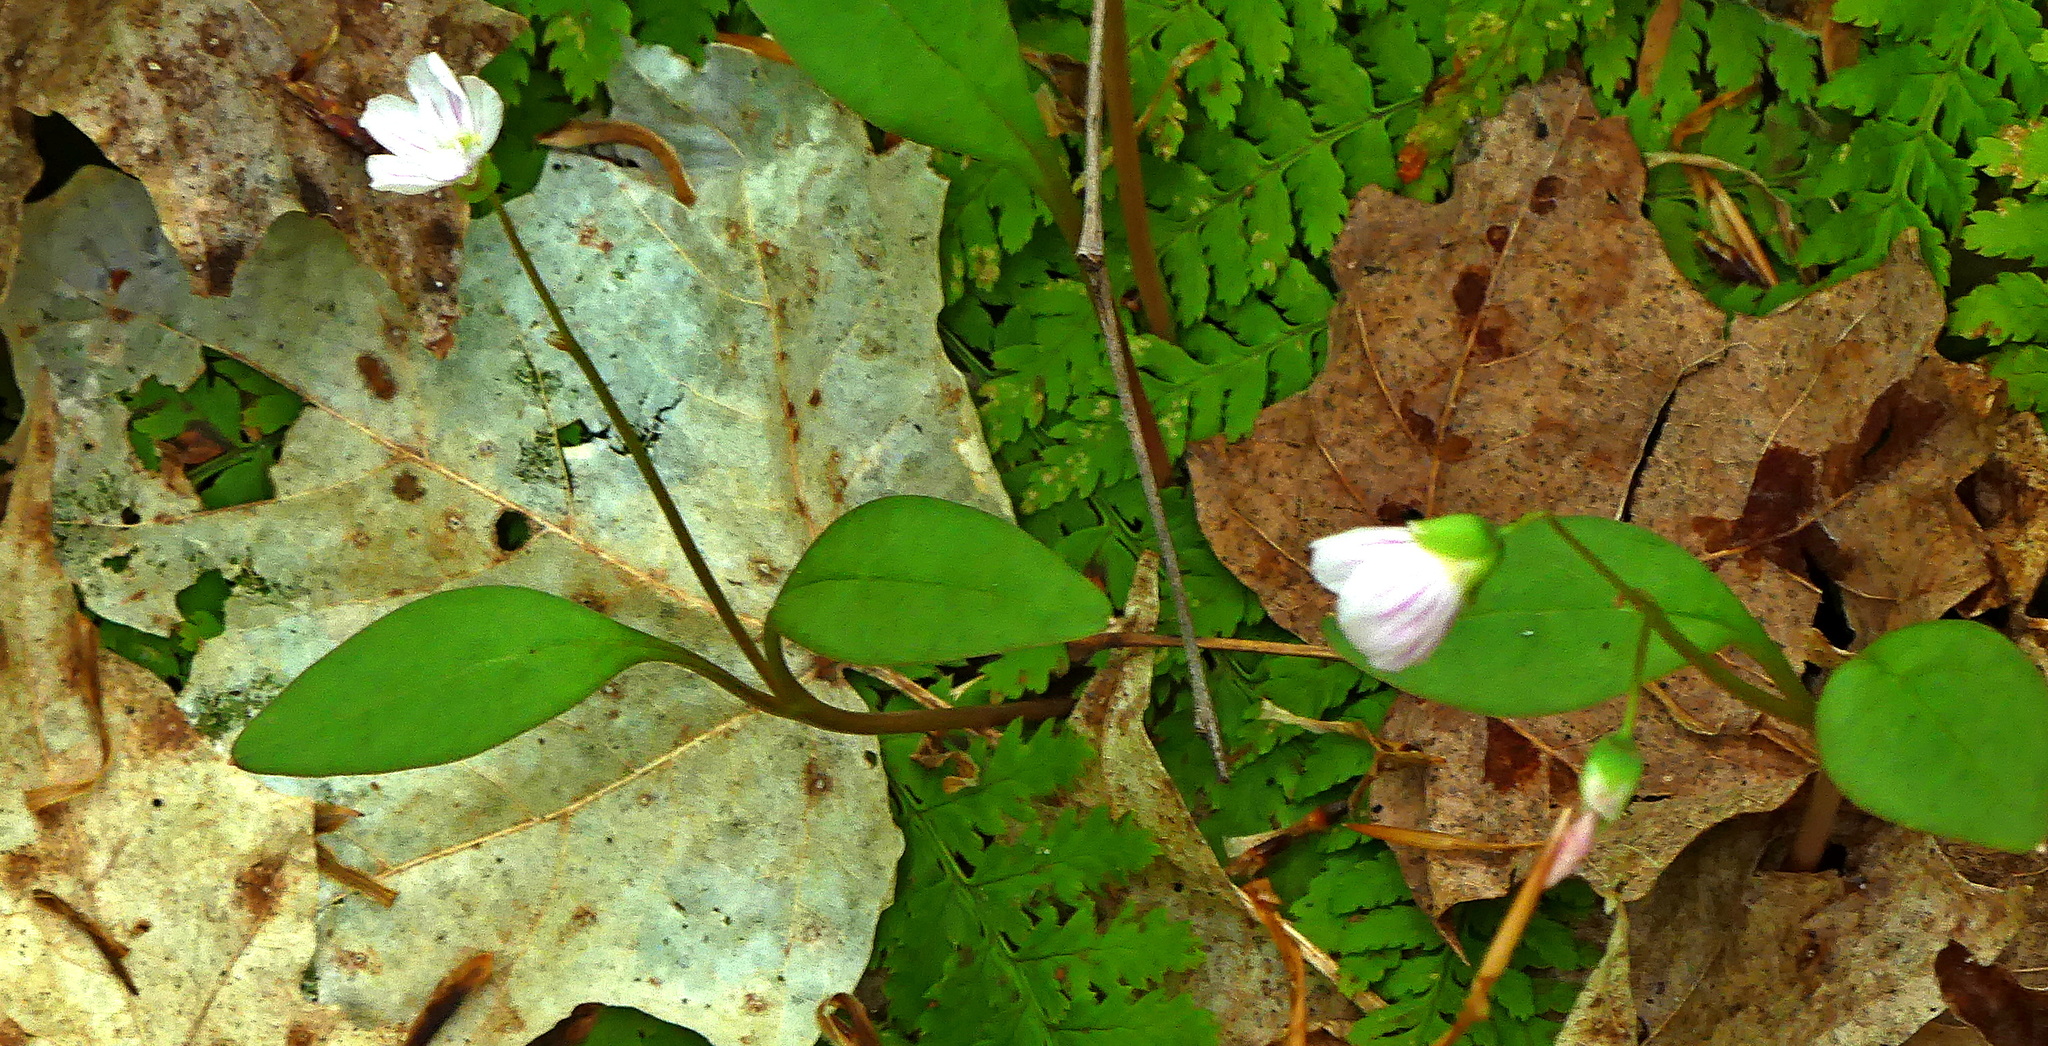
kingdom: Plantae
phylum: Tracheophyta
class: Magnoliopsida
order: Caryophyllales
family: Montiaceae
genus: Claytonia
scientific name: Claytonia caroliniana
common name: Carolina spring beauty
